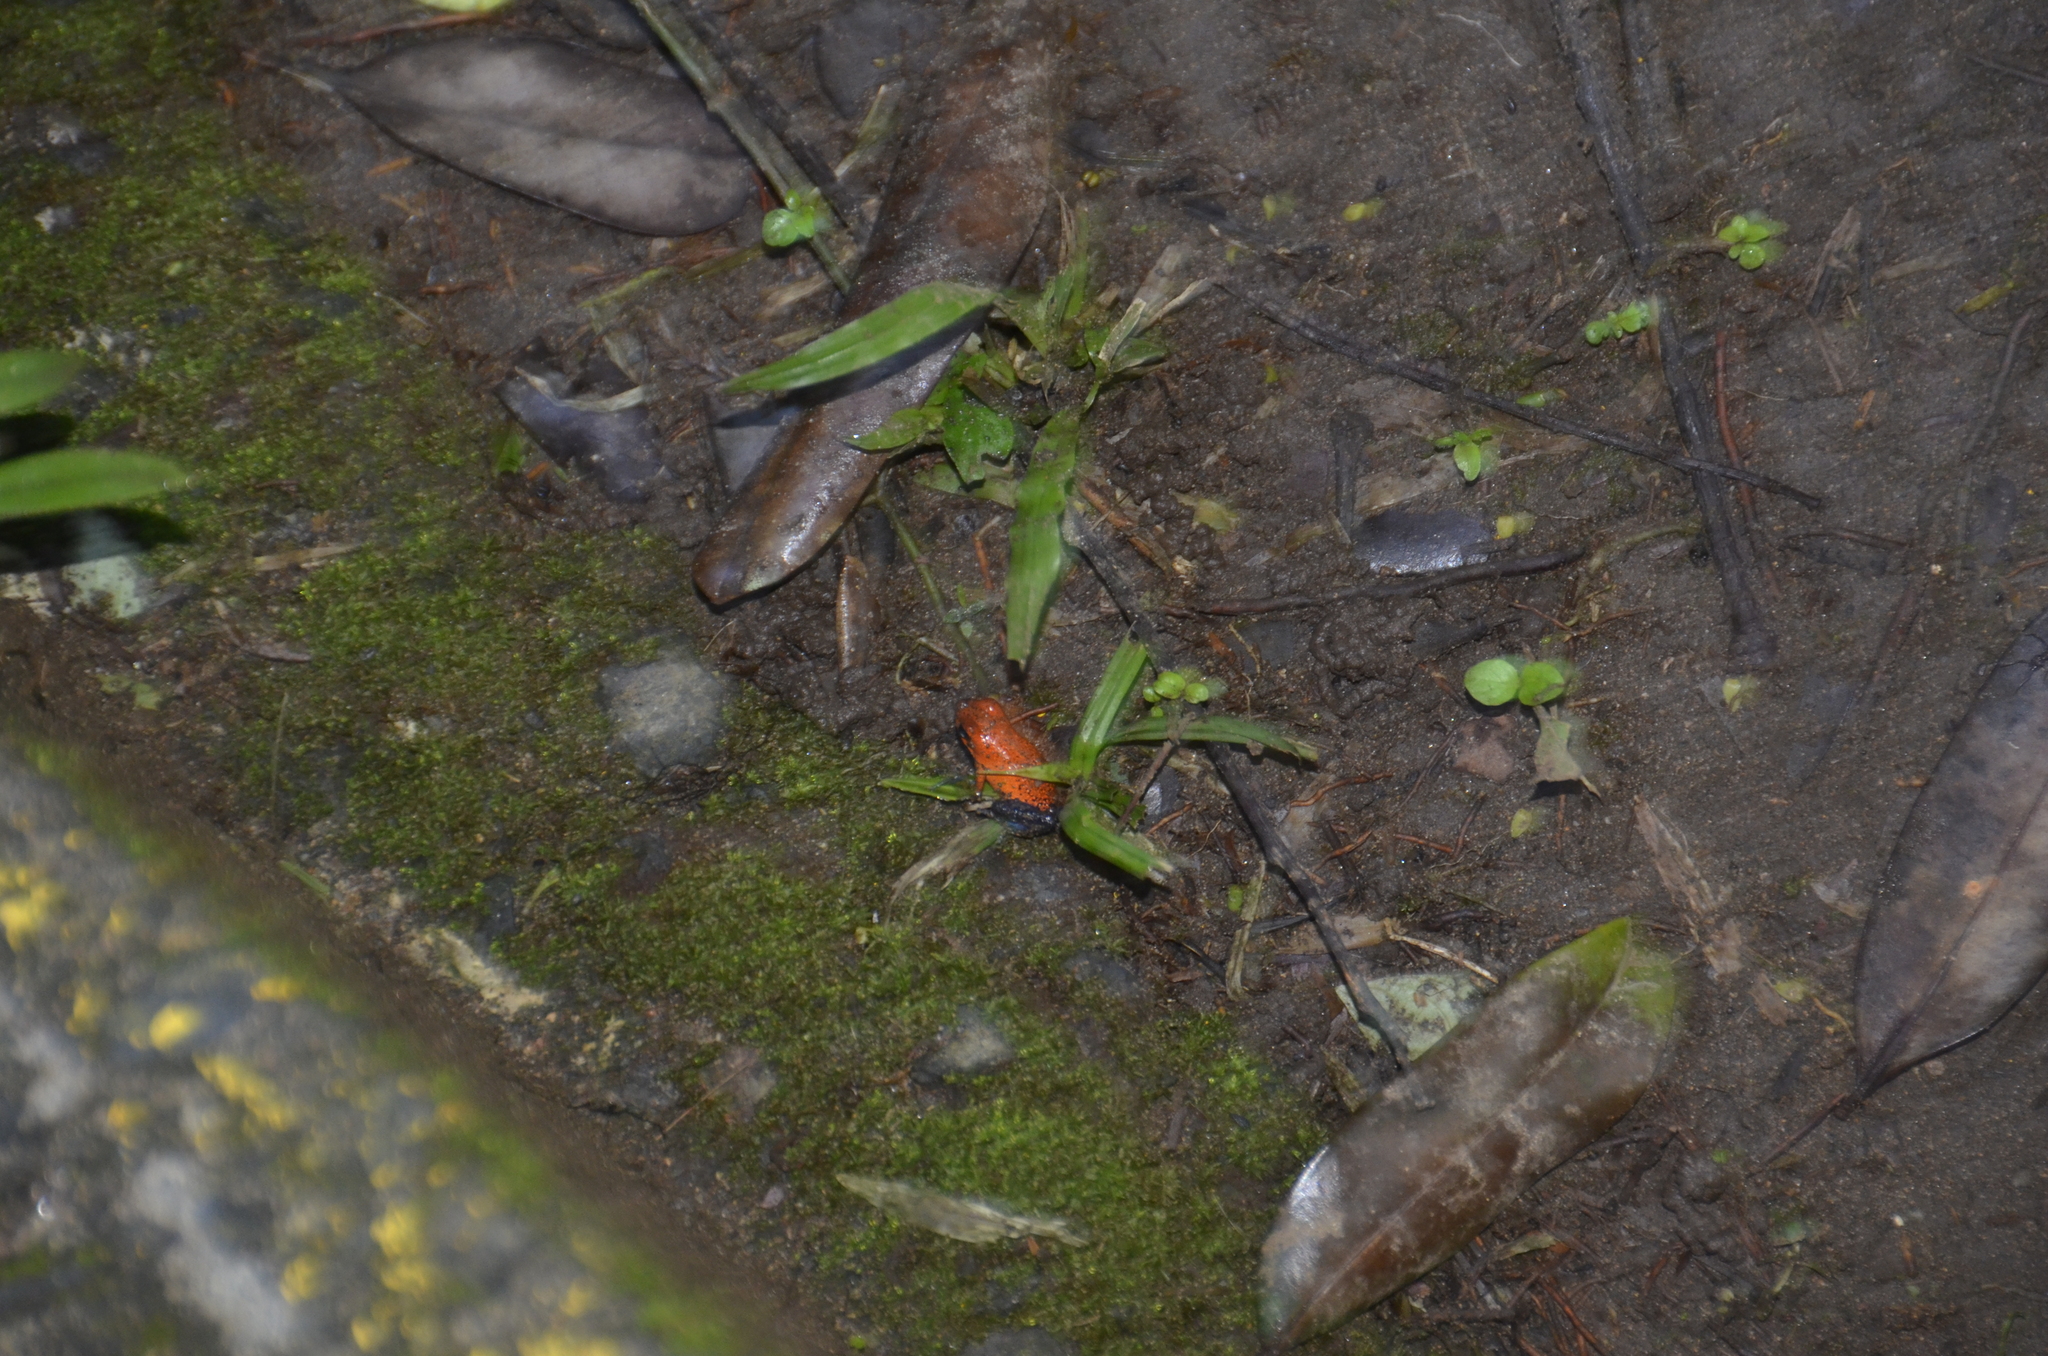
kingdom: Animalia
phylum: Chordata
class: Amphibia
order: Anura
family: Dendrobatidae
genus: Oophaga
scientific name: Oophaga pumilio
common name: Flaming poison frog
